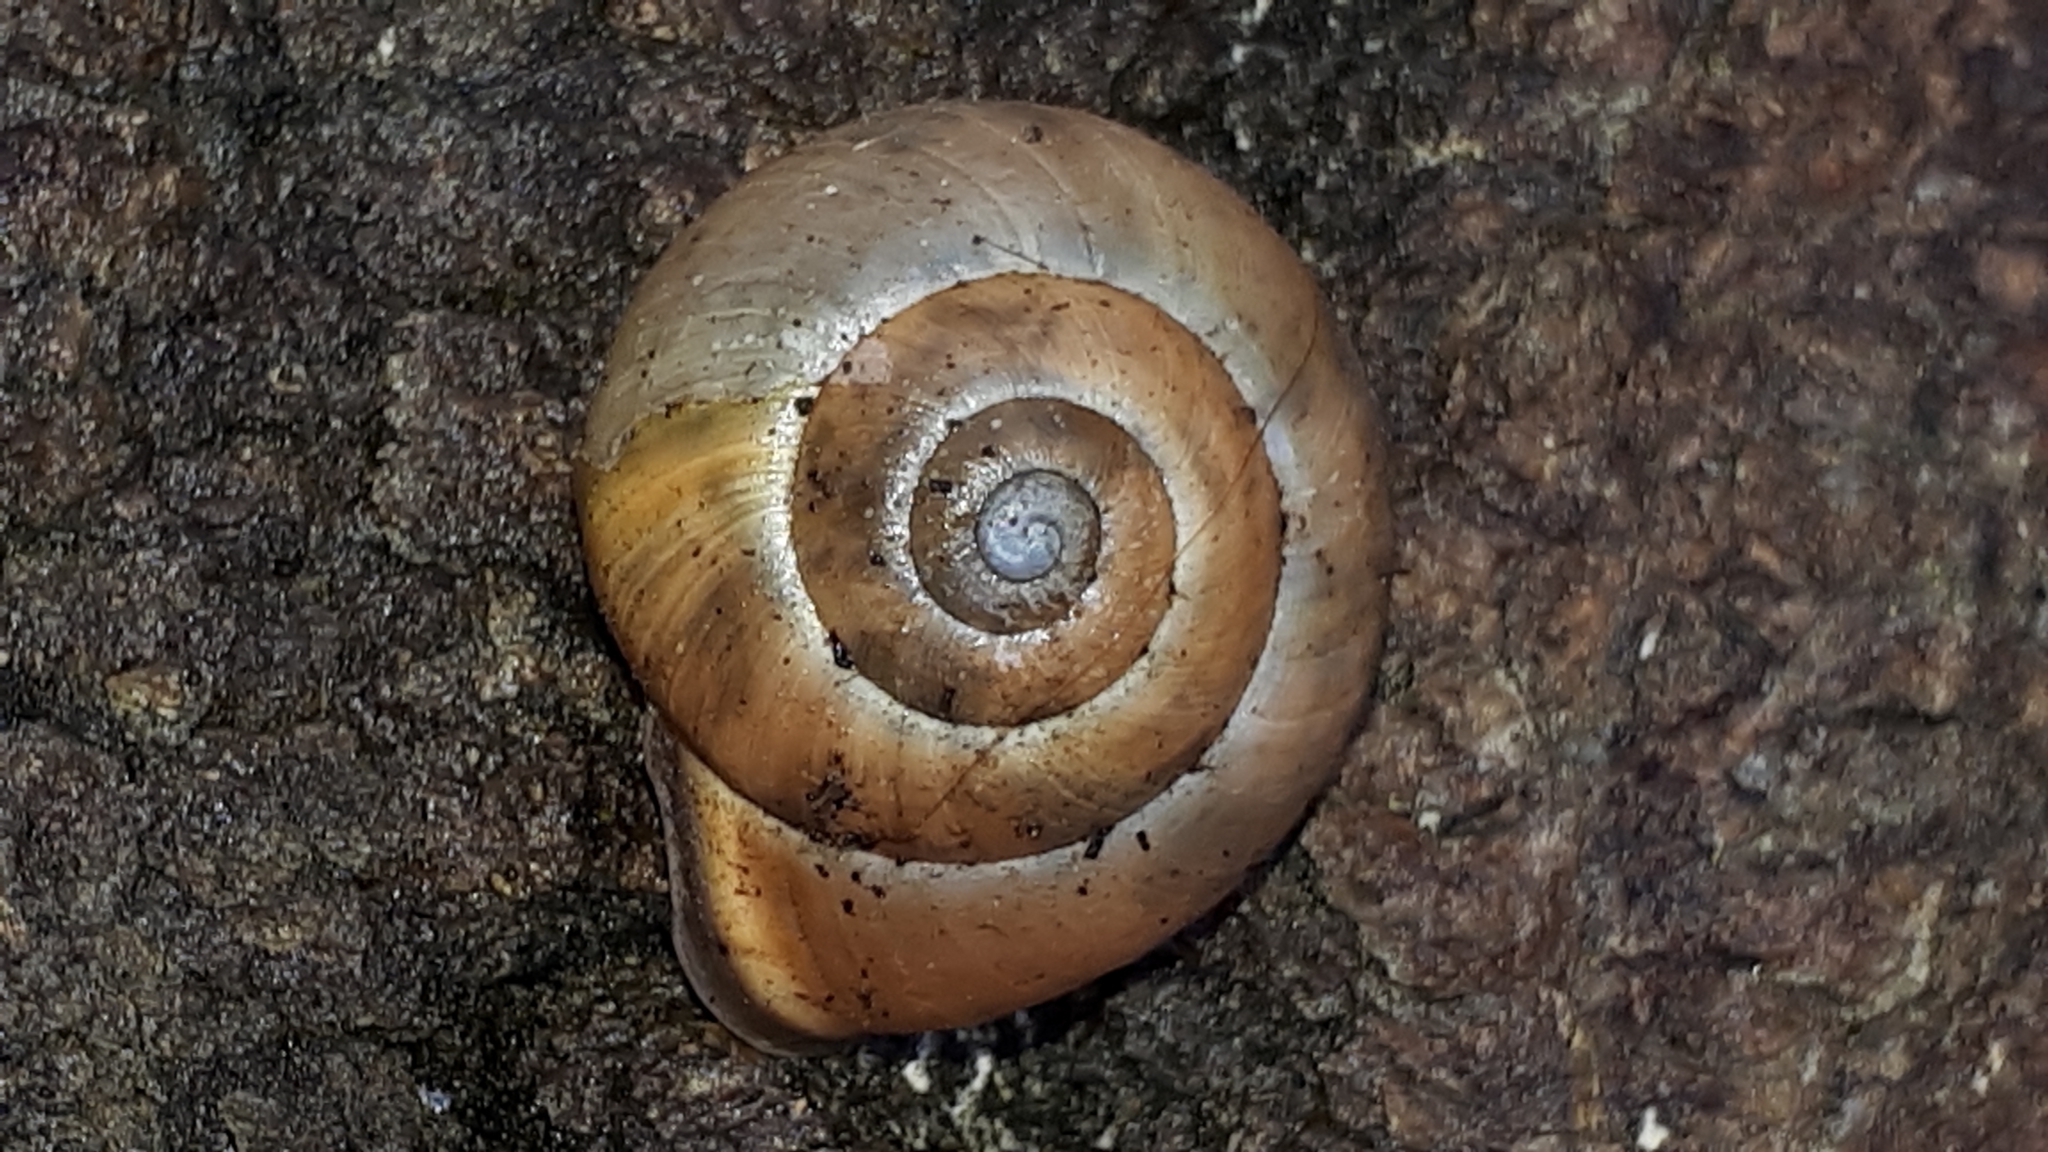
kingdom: Animalia
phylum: Mollusca
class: Gastropoda
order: Stylommatophora
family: Helicidae
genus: Cepaea
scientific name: Cepaea nemoralis
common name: Grovesnail
